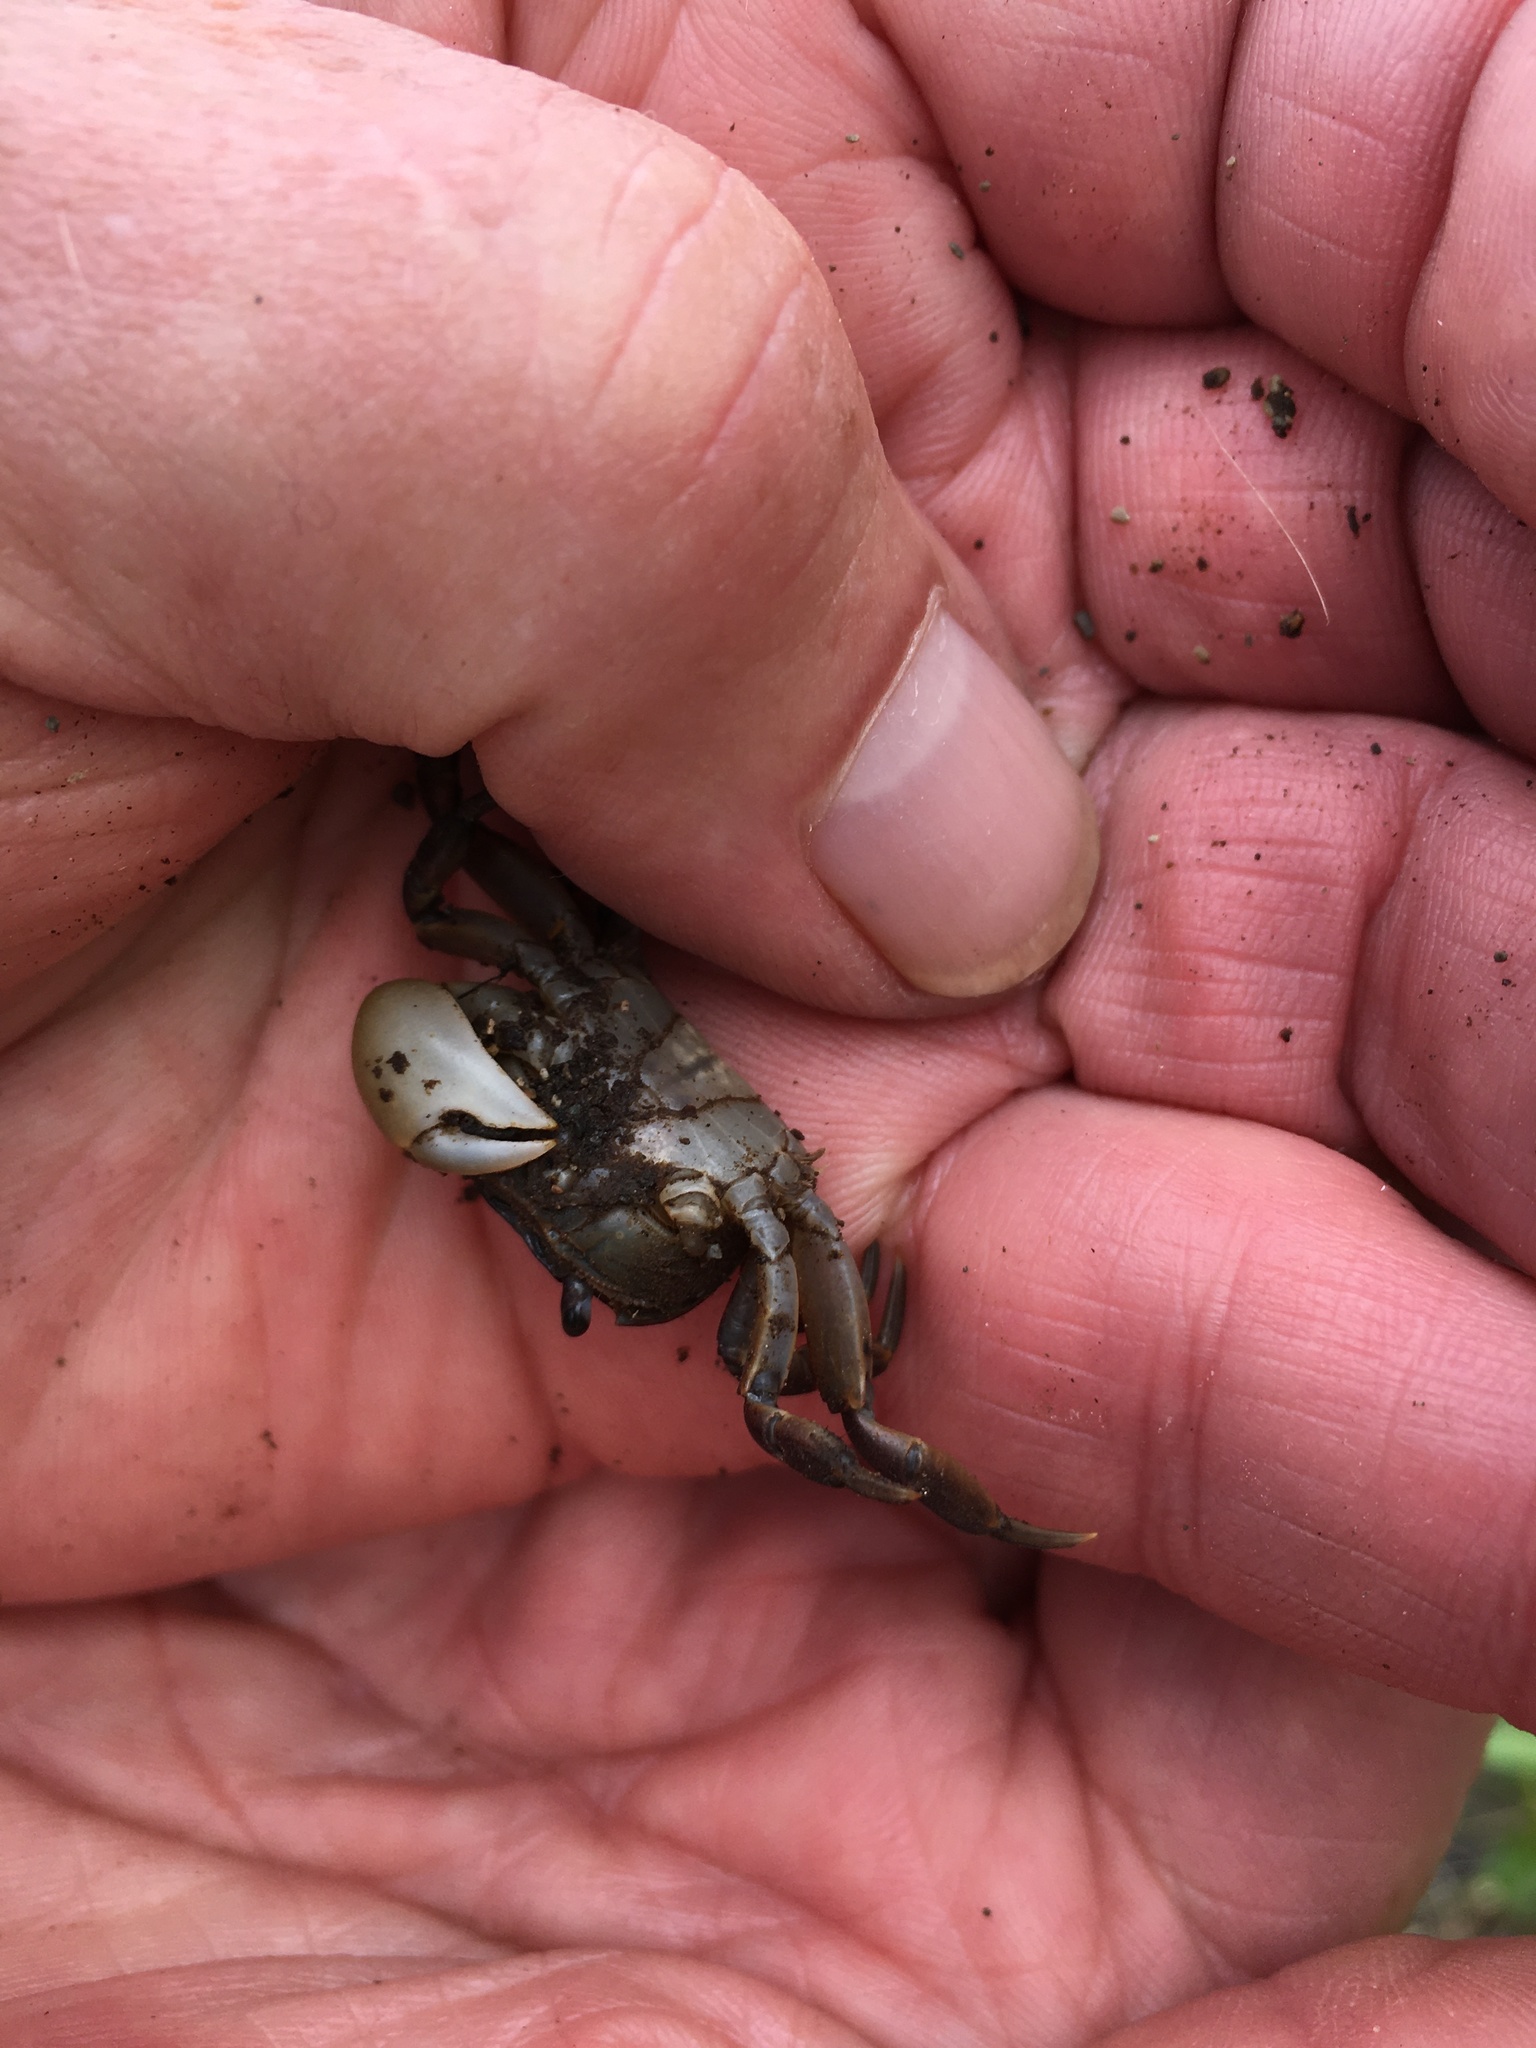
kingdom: Animalia
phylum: Arthropoda
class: Malacostraca
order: Decapoda
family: Varunidae
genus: Cyclograpsus
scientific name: Cyclograpsus lavauxi
